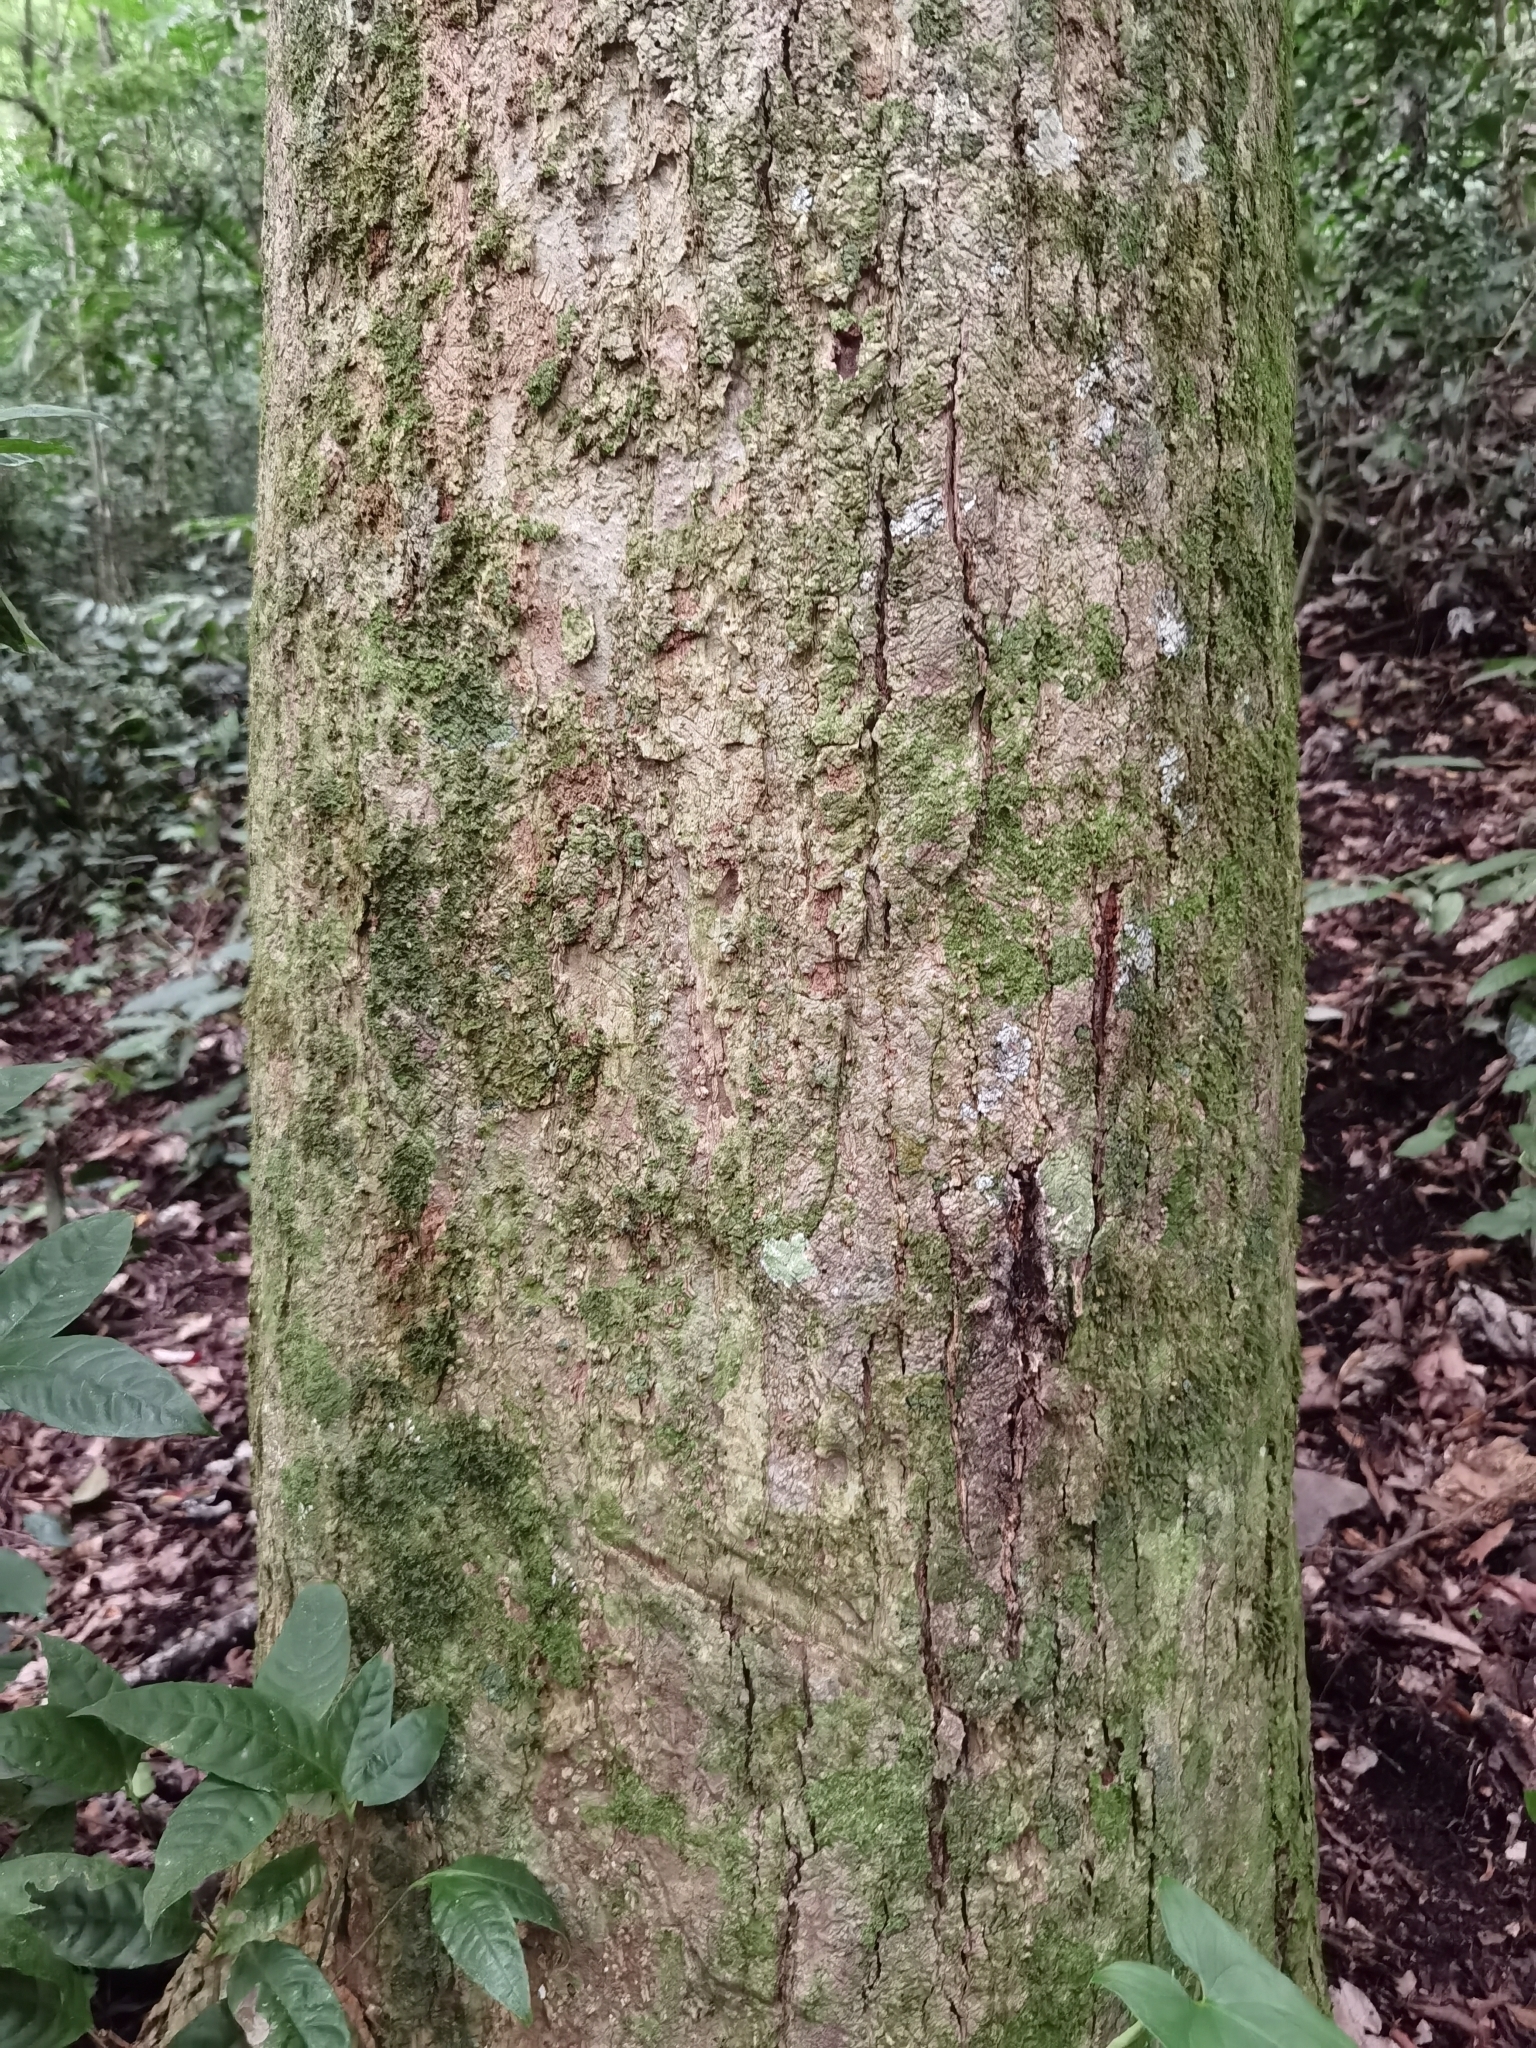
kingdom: Plantae
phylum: Tracheophyta
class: Magnoliopsida
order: Fabales
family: Fabaceae
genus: Styphnolobium
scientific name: Styphnolobium monteviridis
